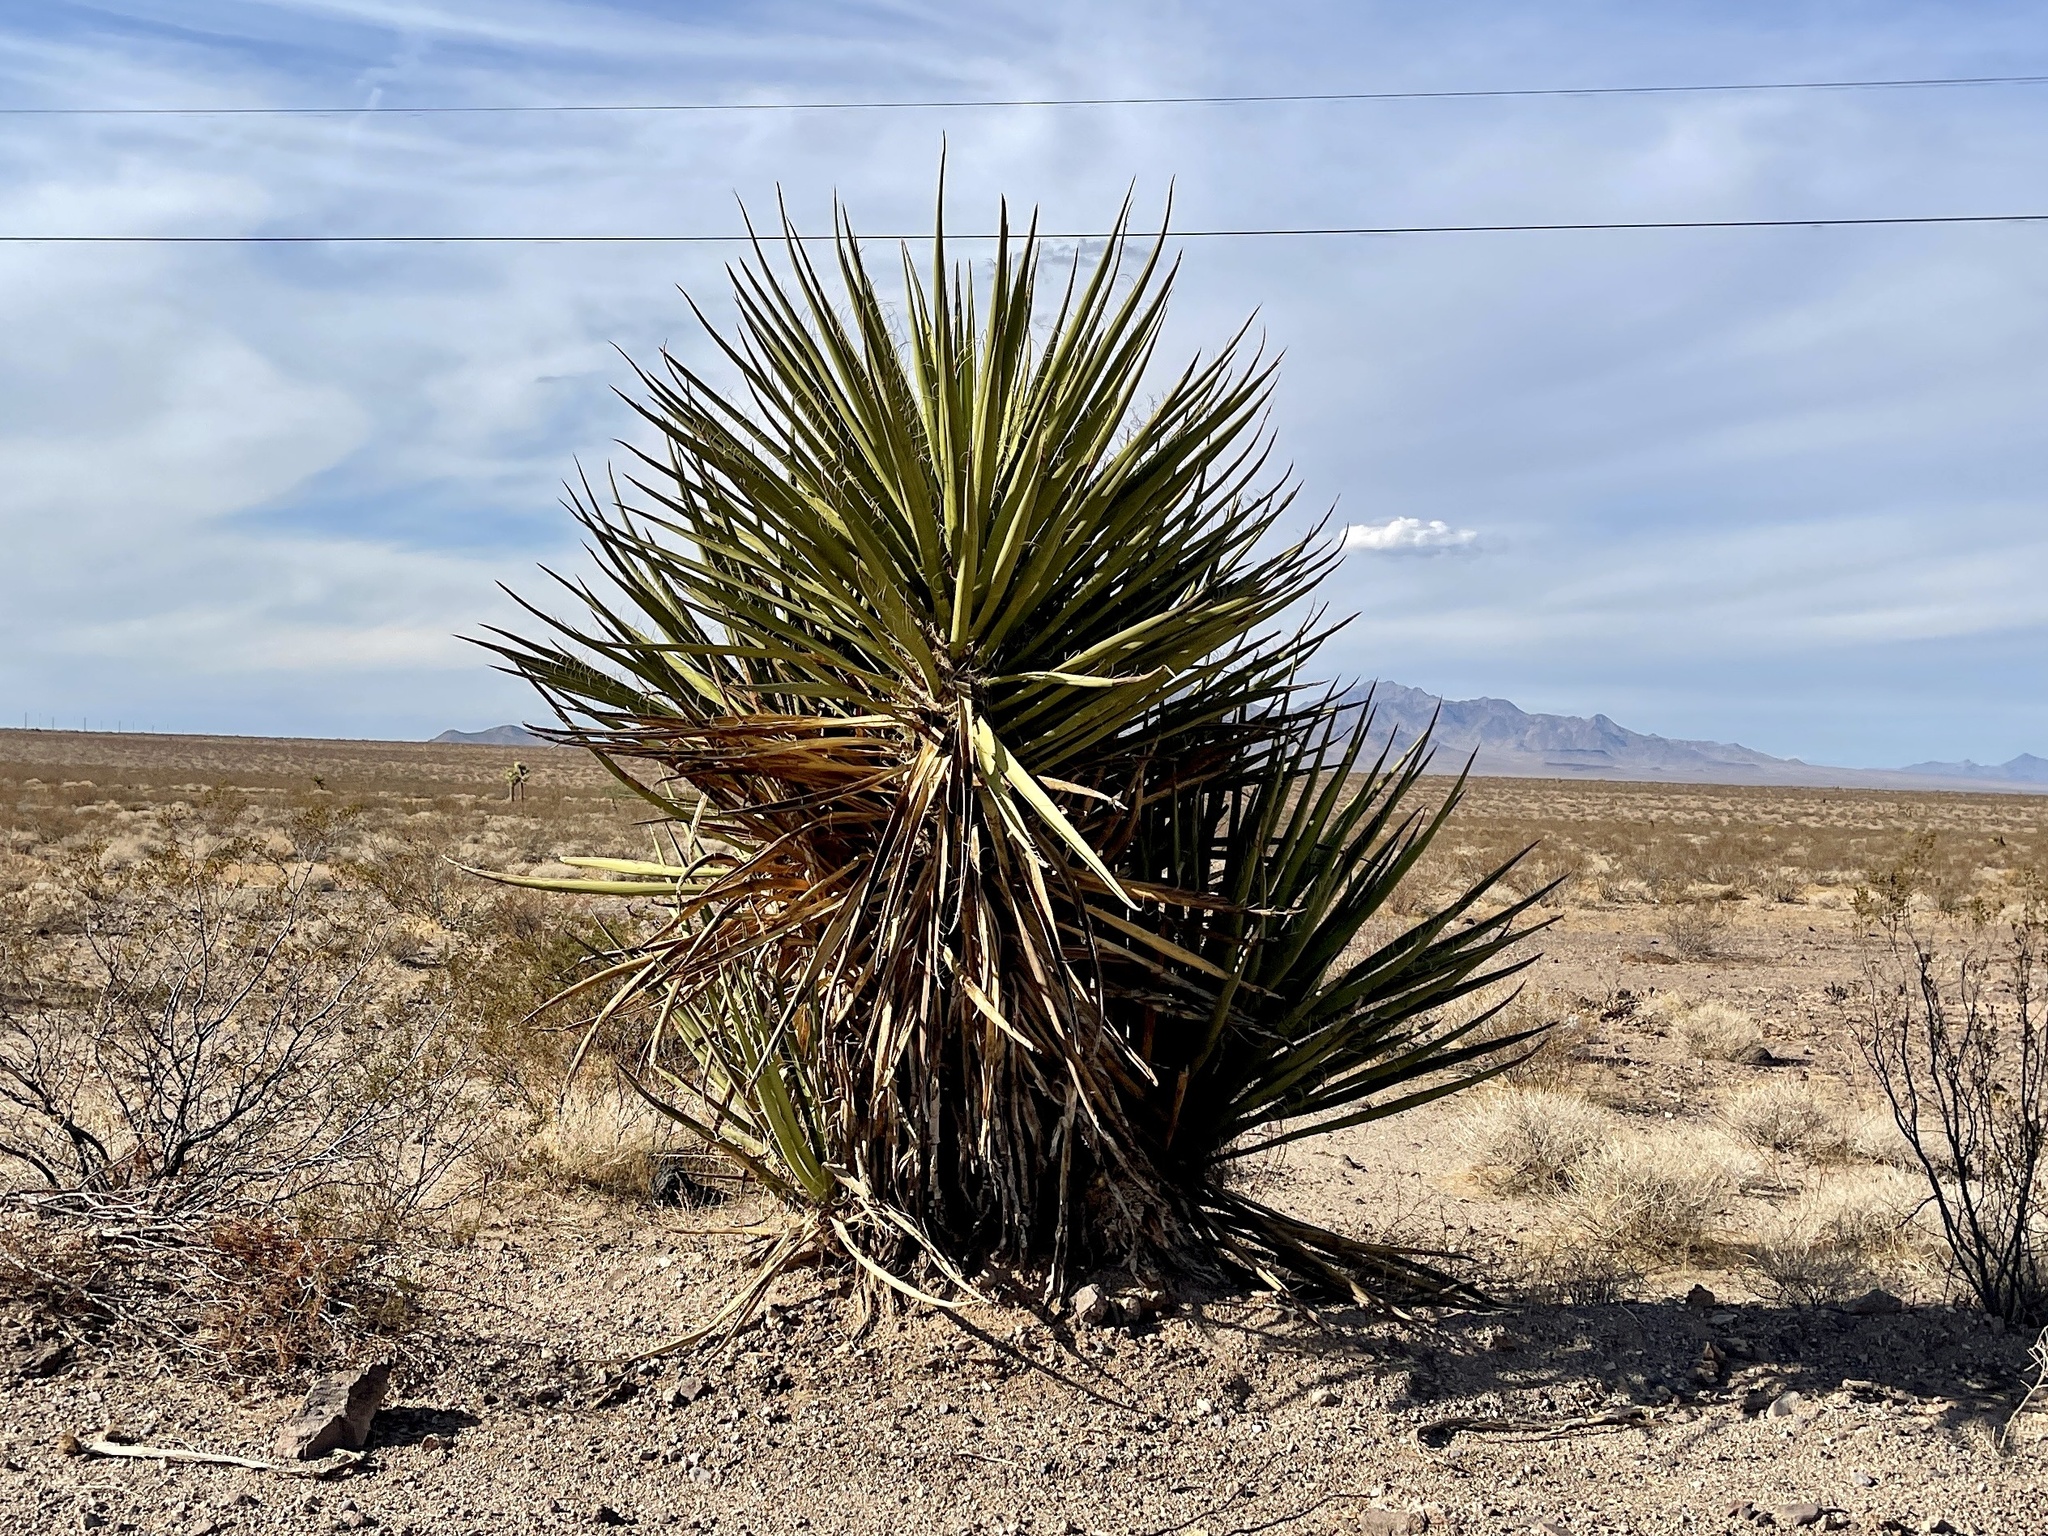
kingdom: Plantae
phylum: Tracheophyta
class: Liliopsida
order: Asparagales
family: Asparagaceae
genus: Yucca
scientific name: Yucca schidigera
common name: Mojave yucca
